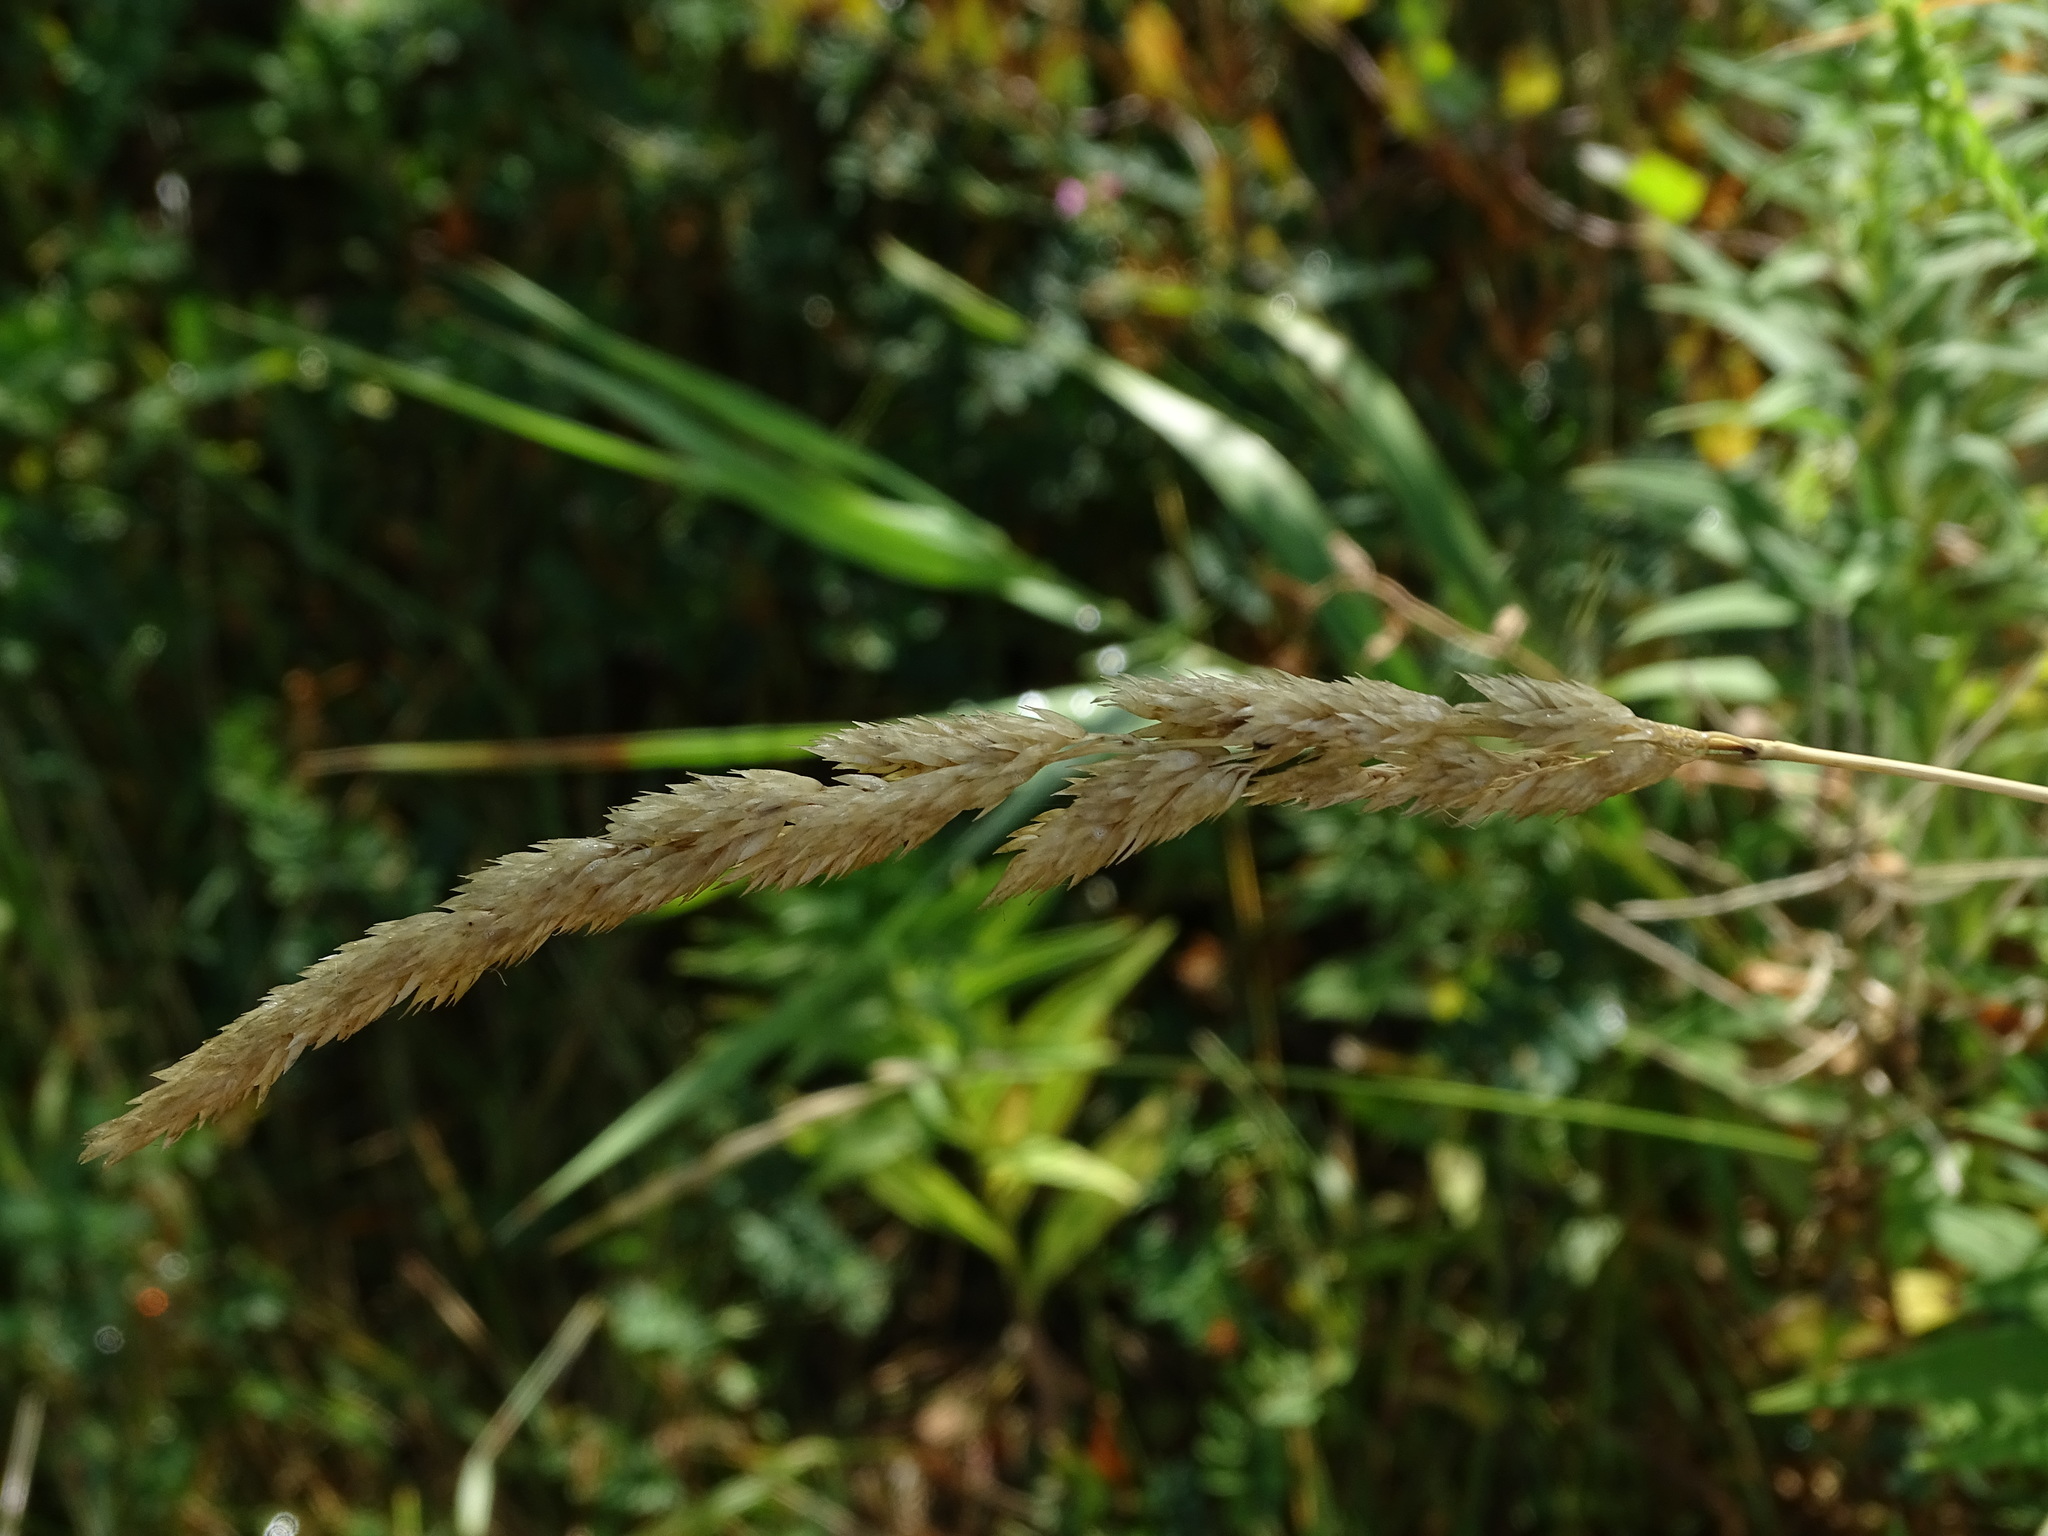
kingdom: Plantae
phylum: Tracheophyta
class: Liliopsida
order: Poales
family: Poaceae
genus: Phalaris
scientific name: Phalaris arundinacea
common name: Reed canary-grass
